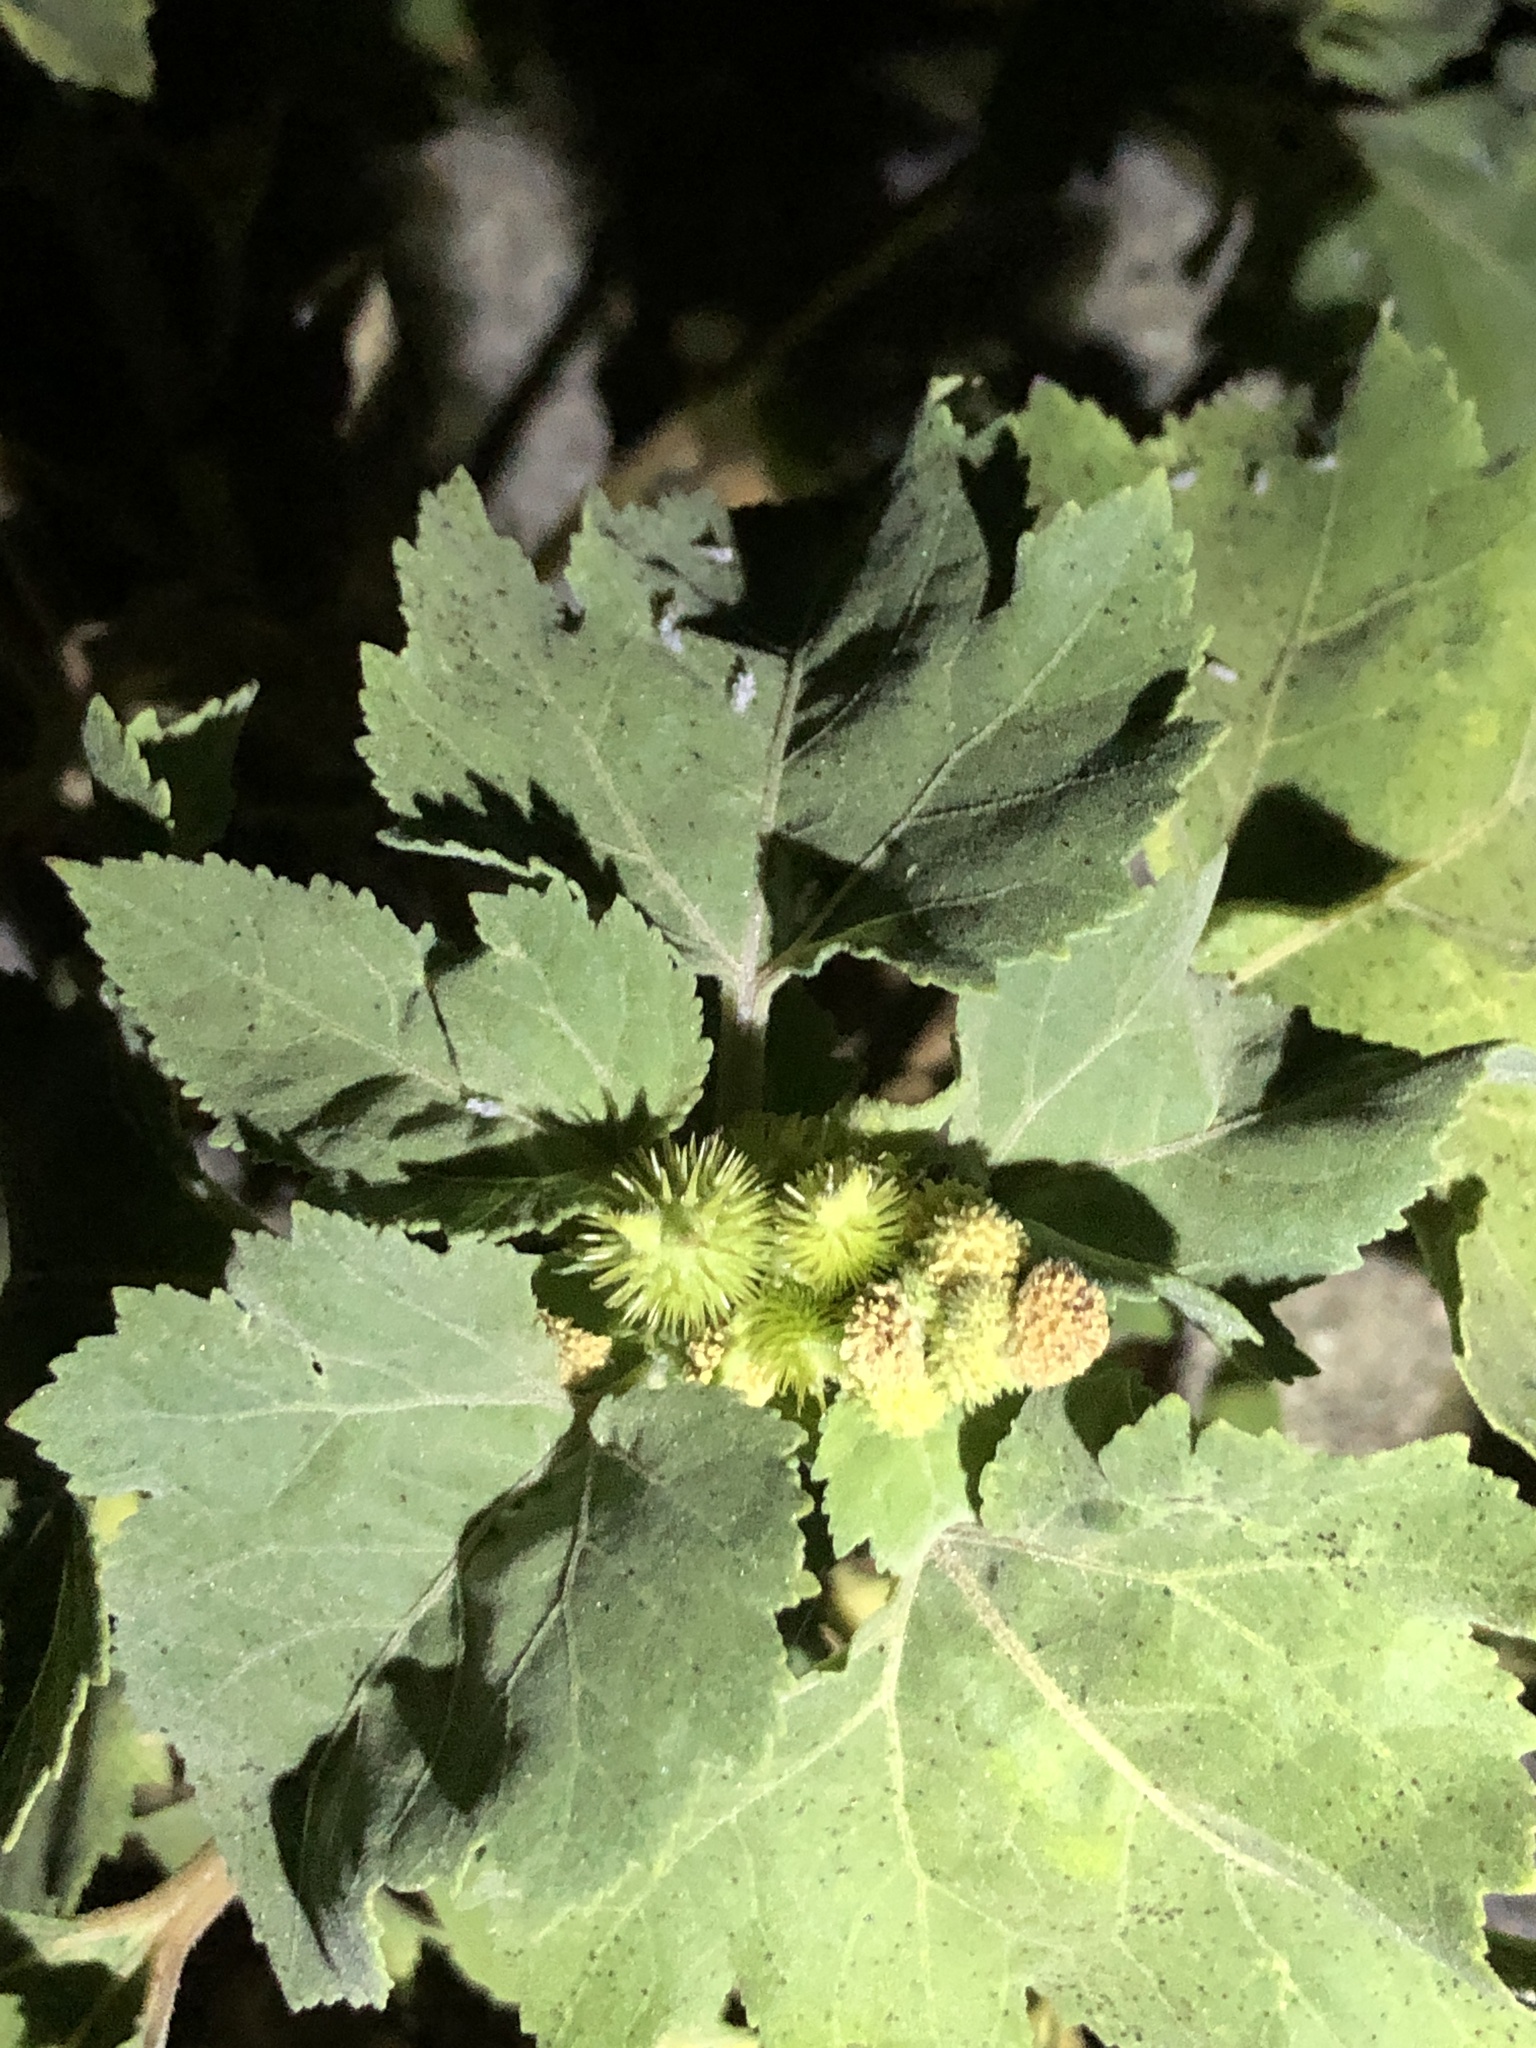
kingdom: Plantae
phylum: Tracheophyta
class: Magnoliopsida
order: Asterales
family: Asteraceae
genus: Xanthium
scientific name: Xanthium strumarium
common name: Rough cocklebur
